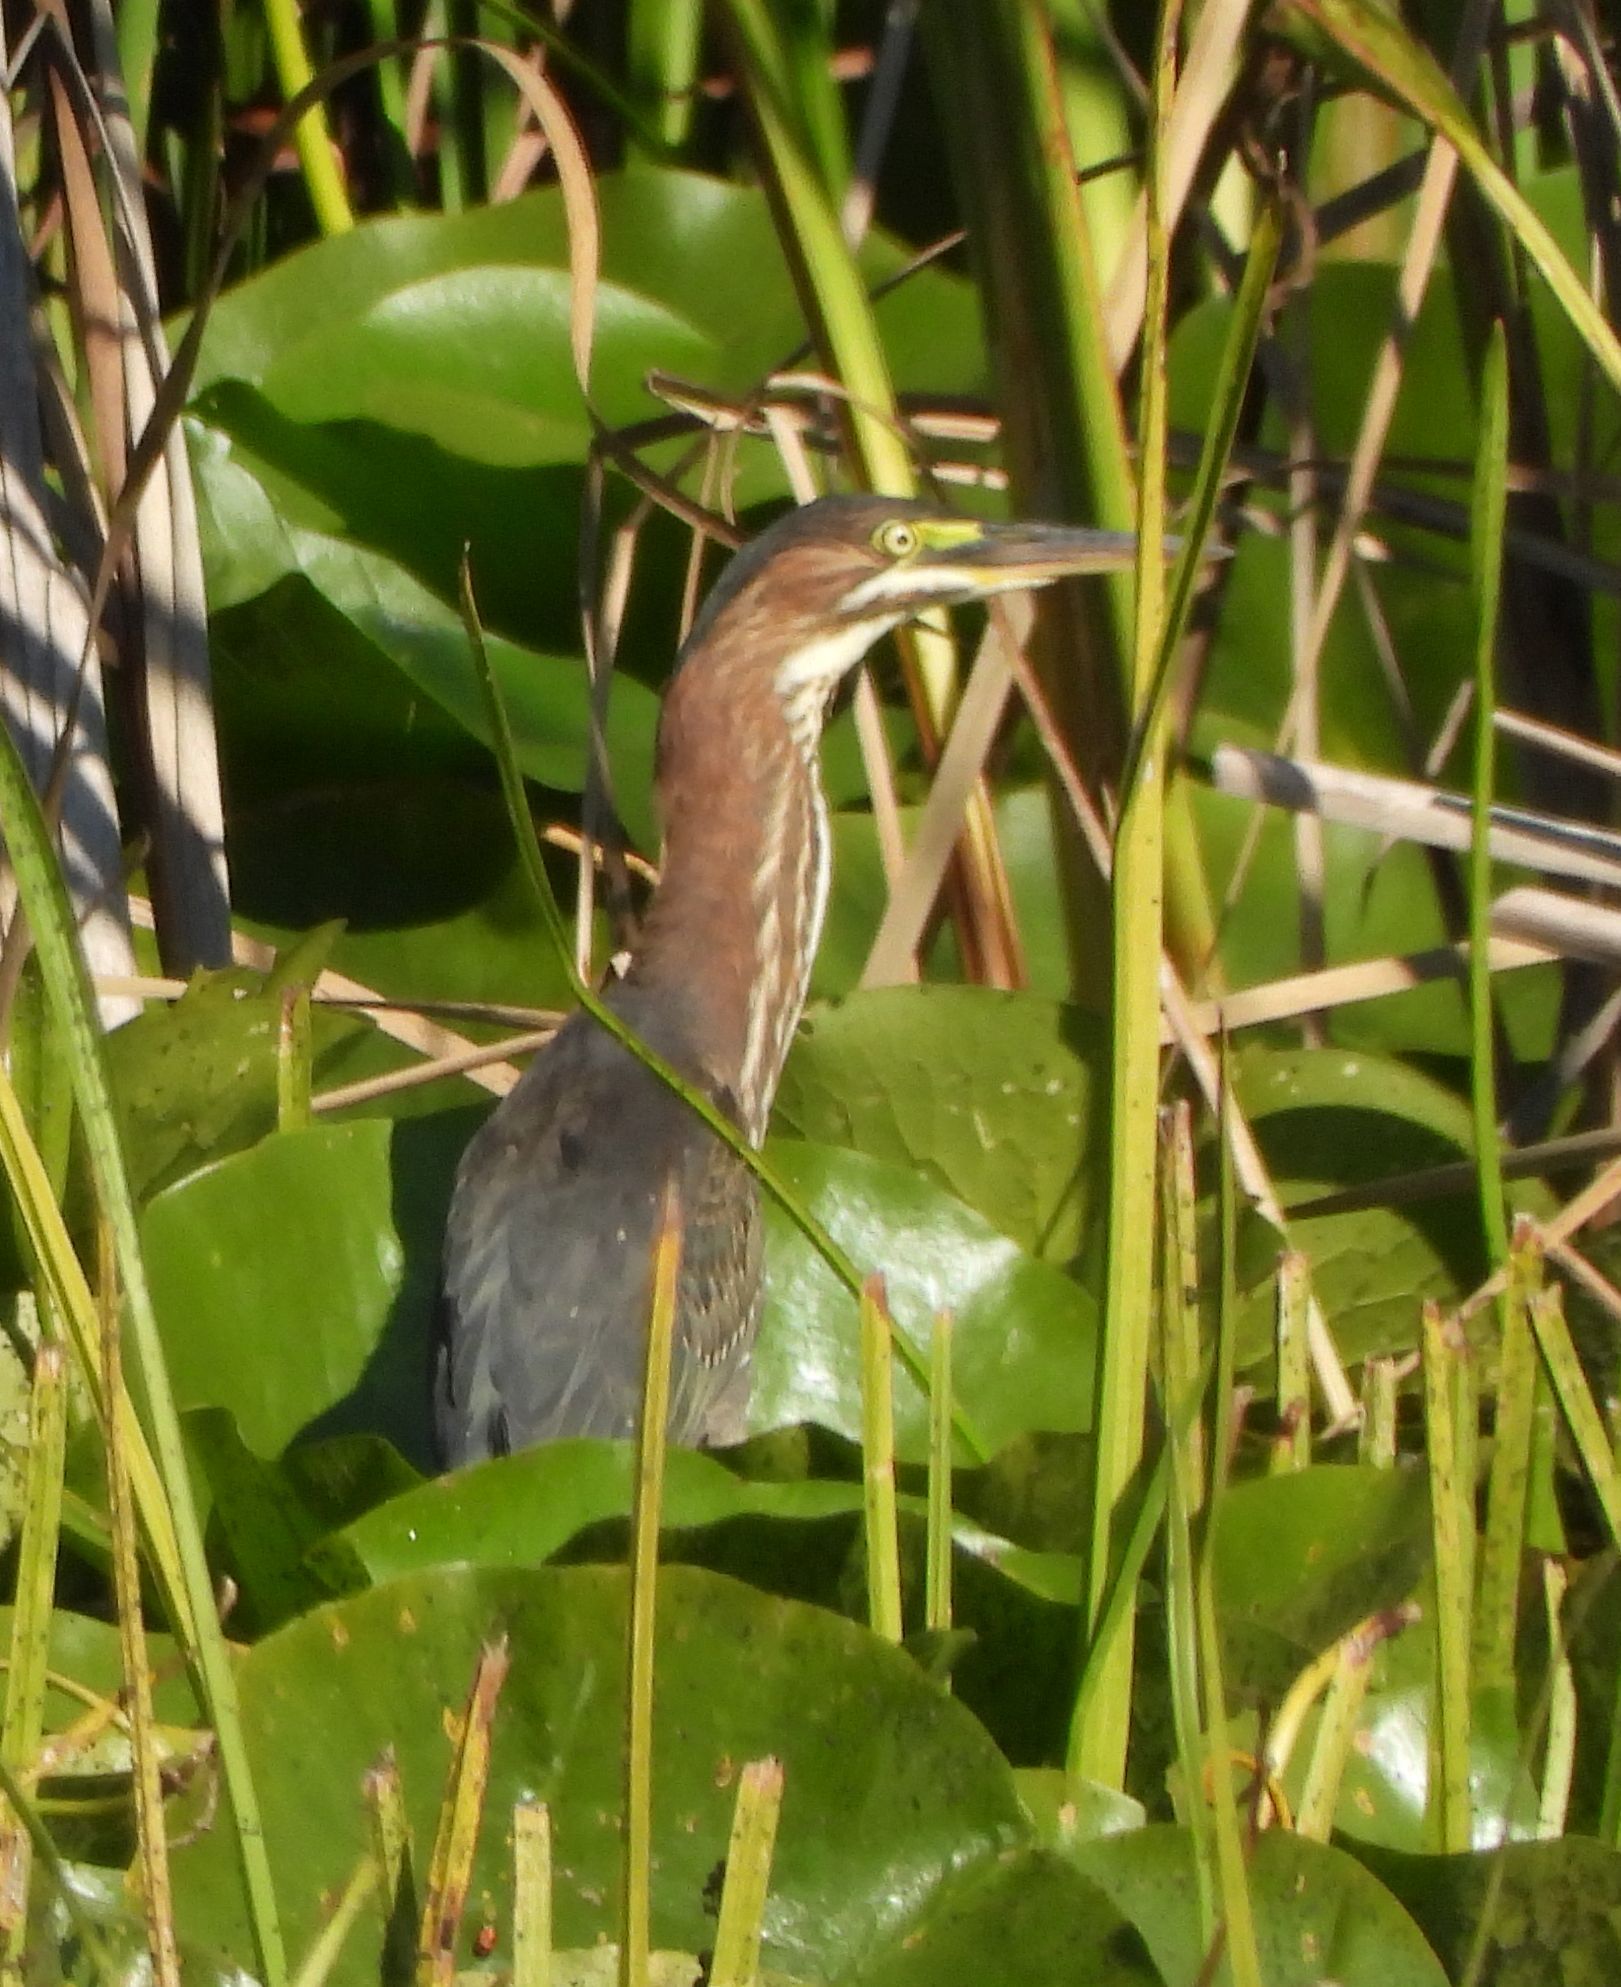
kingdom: Animalia
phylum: Chordata
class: Aves
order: Pelecaniformes
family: Ardeidae
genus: Butorides
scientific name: Butorides virescens
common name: Green heron
